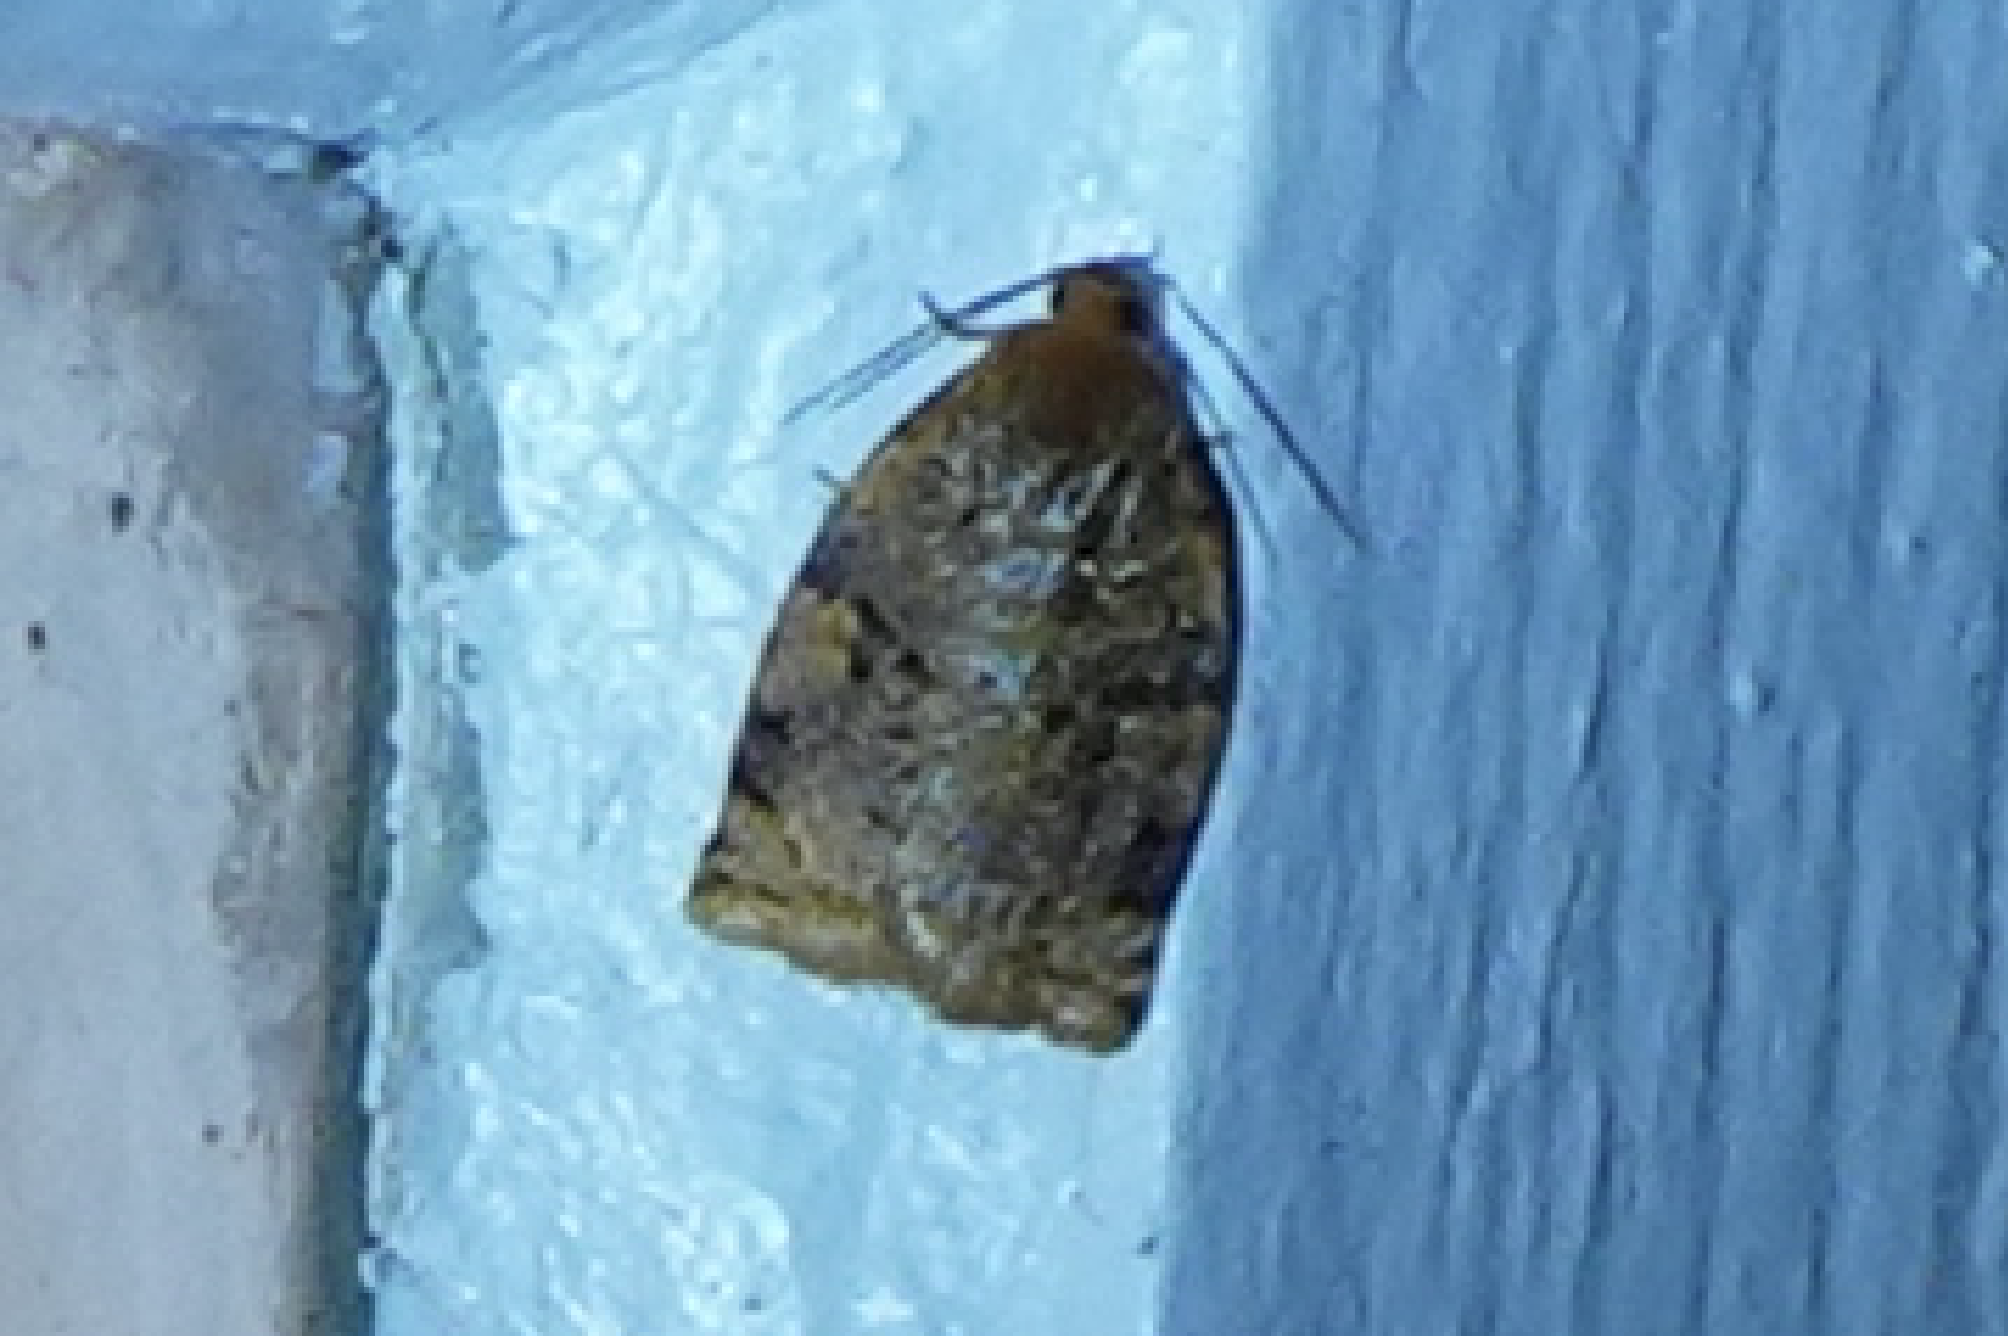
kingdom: Animalia
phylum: Arthropoda
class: Insecta
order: Lepidoptera
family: Tortricidae
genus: Archips
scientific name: Archips cerasivorana
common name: Uglynest caterpillar
